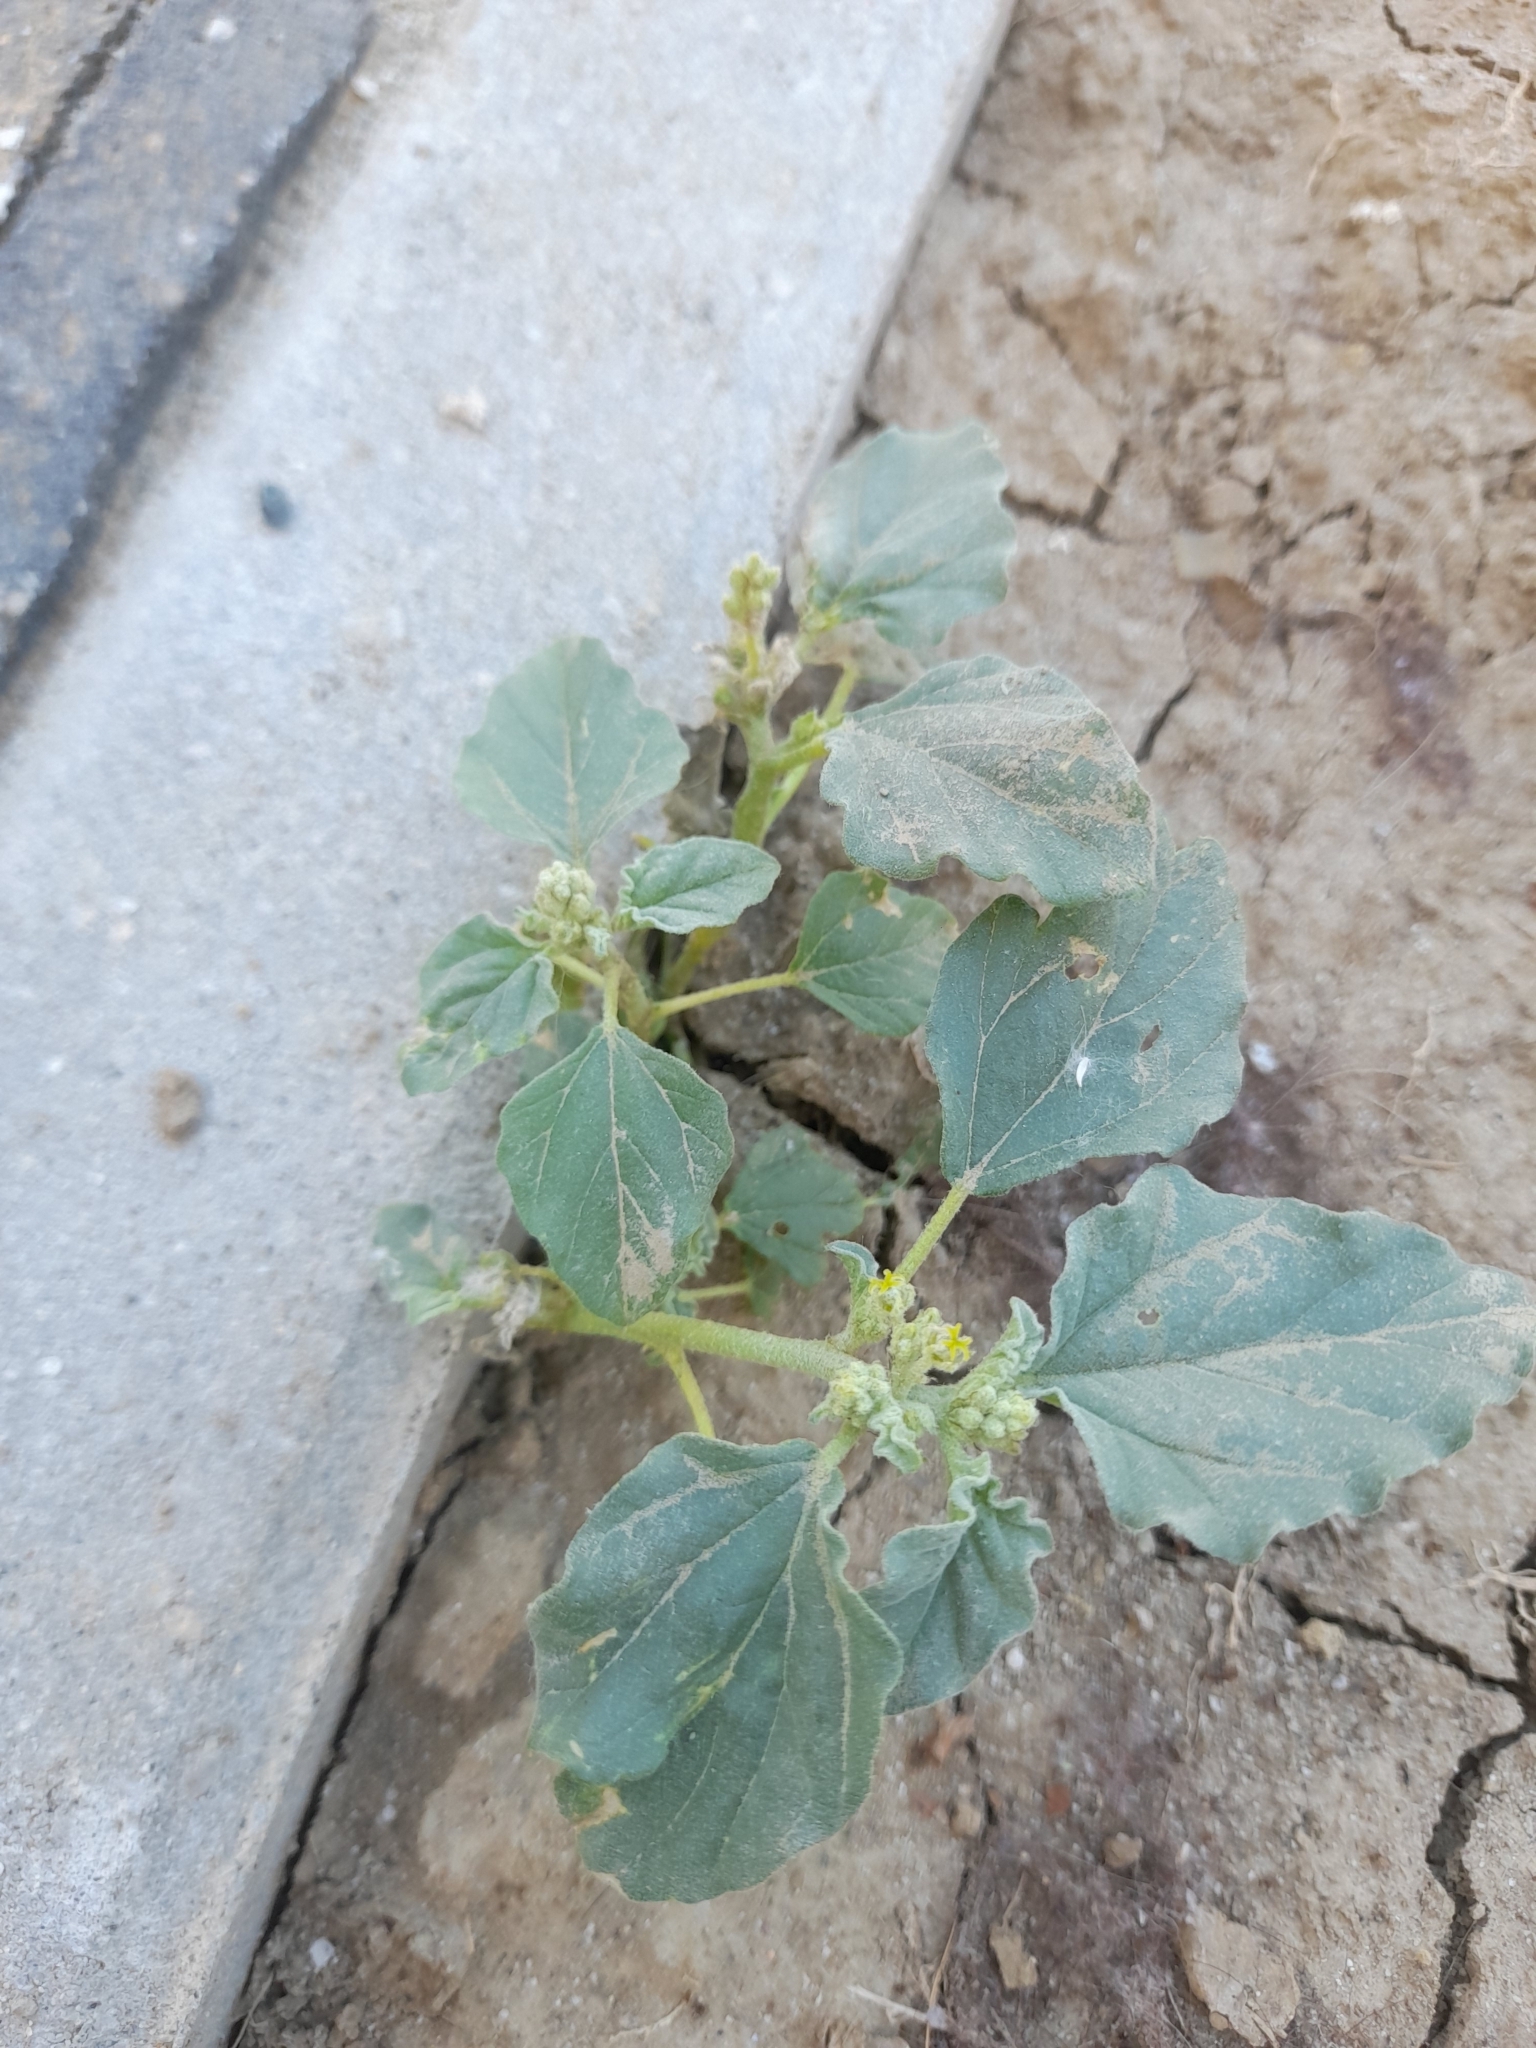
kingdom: Plantae
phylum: Tracheophyta
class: Magnoliopsida
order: Malpighiales
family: Euphorbiaceae
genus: Chrozophora
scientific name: Chrozophora tinctoria
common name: Dyer's litmus
